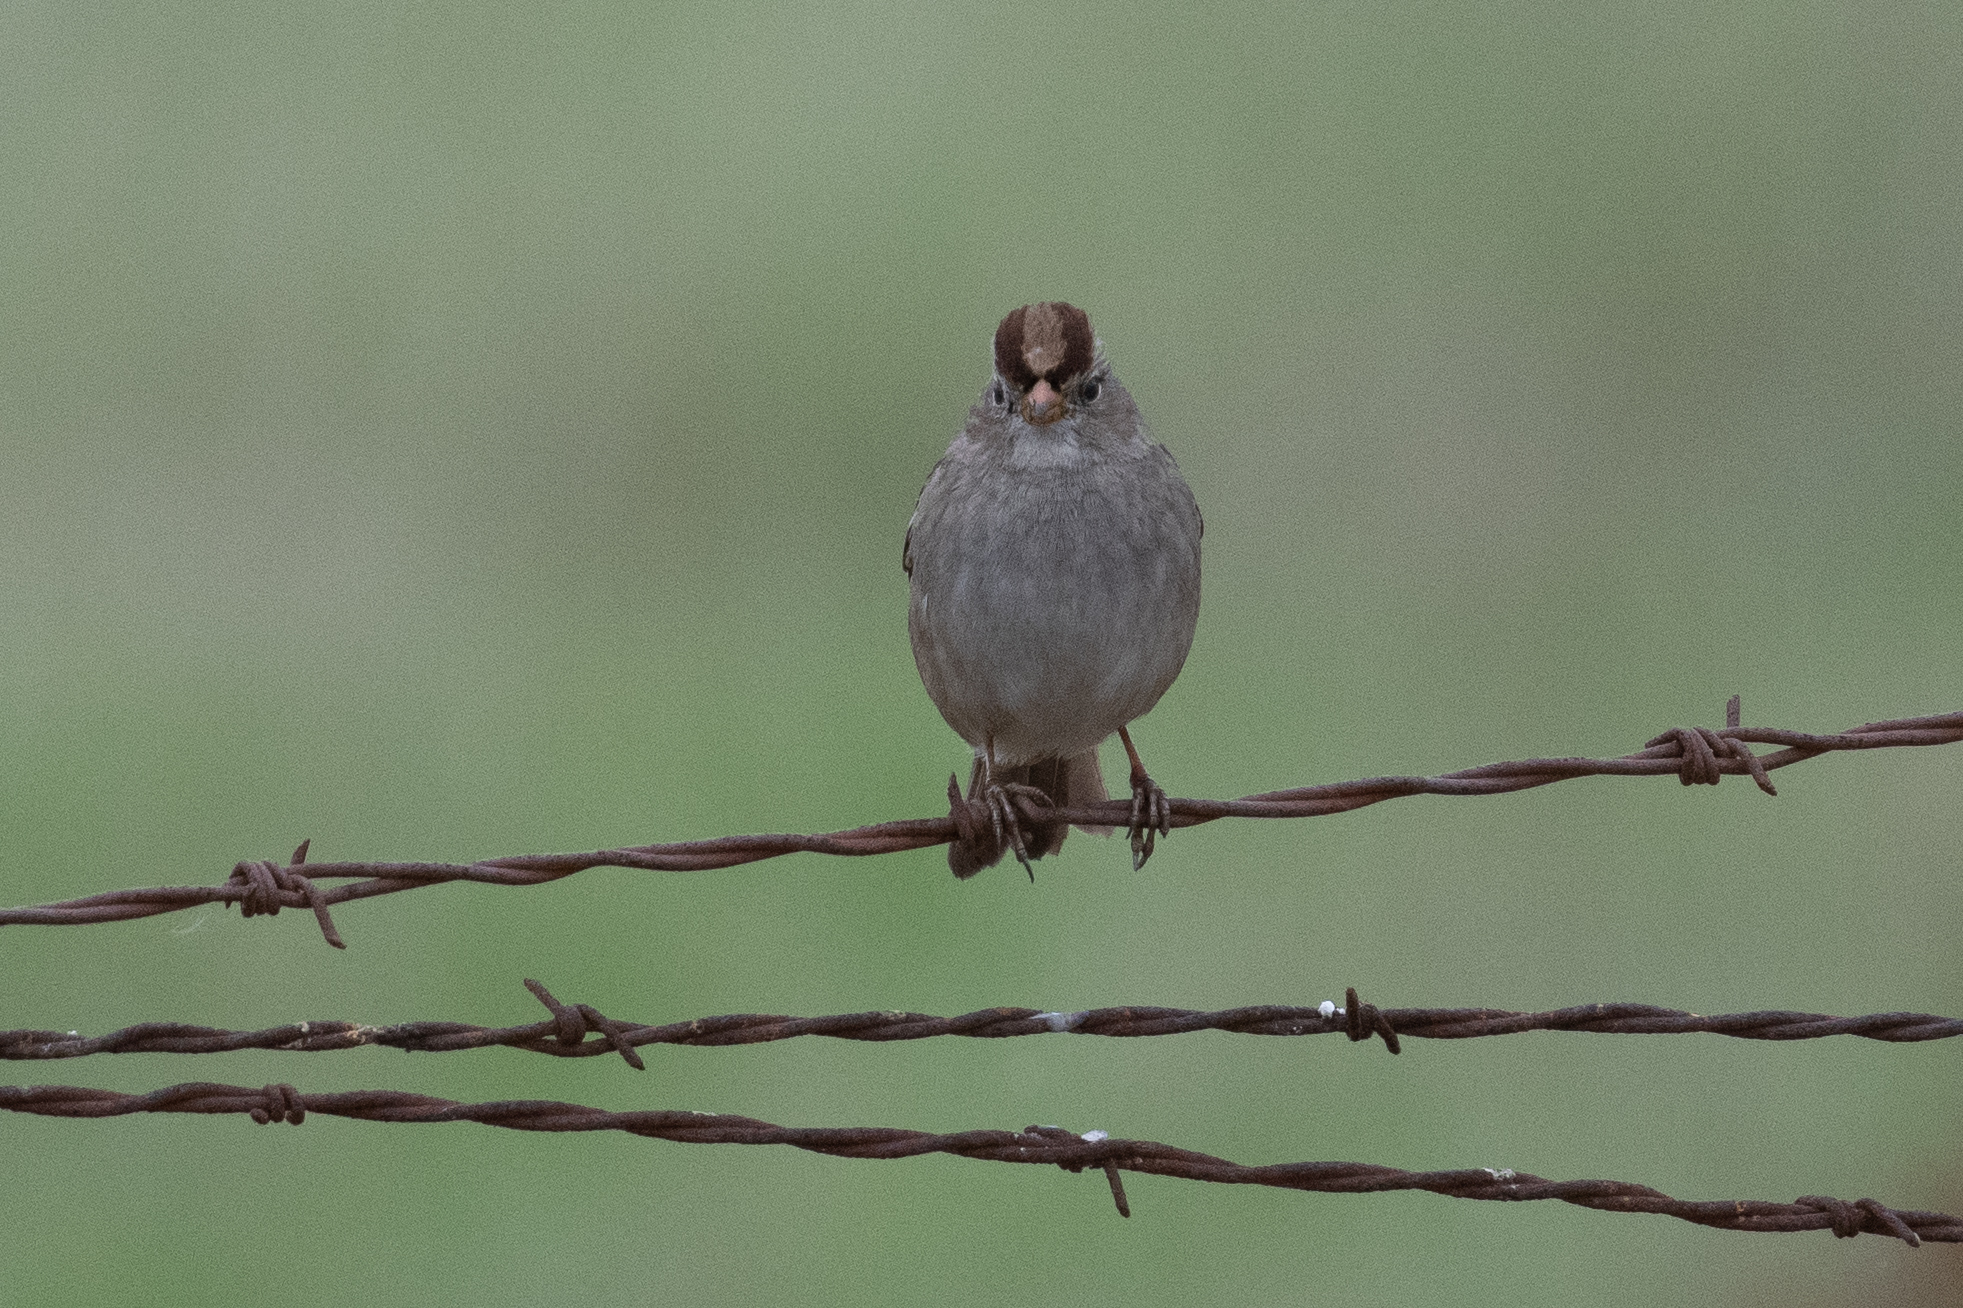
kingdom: Animalia
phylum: Chordata
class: Aves
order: Passeriformes
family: Passerellidae
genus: Zonotrichia
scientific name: Zonotrichia leucophrys
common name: White-crowned sparrow
